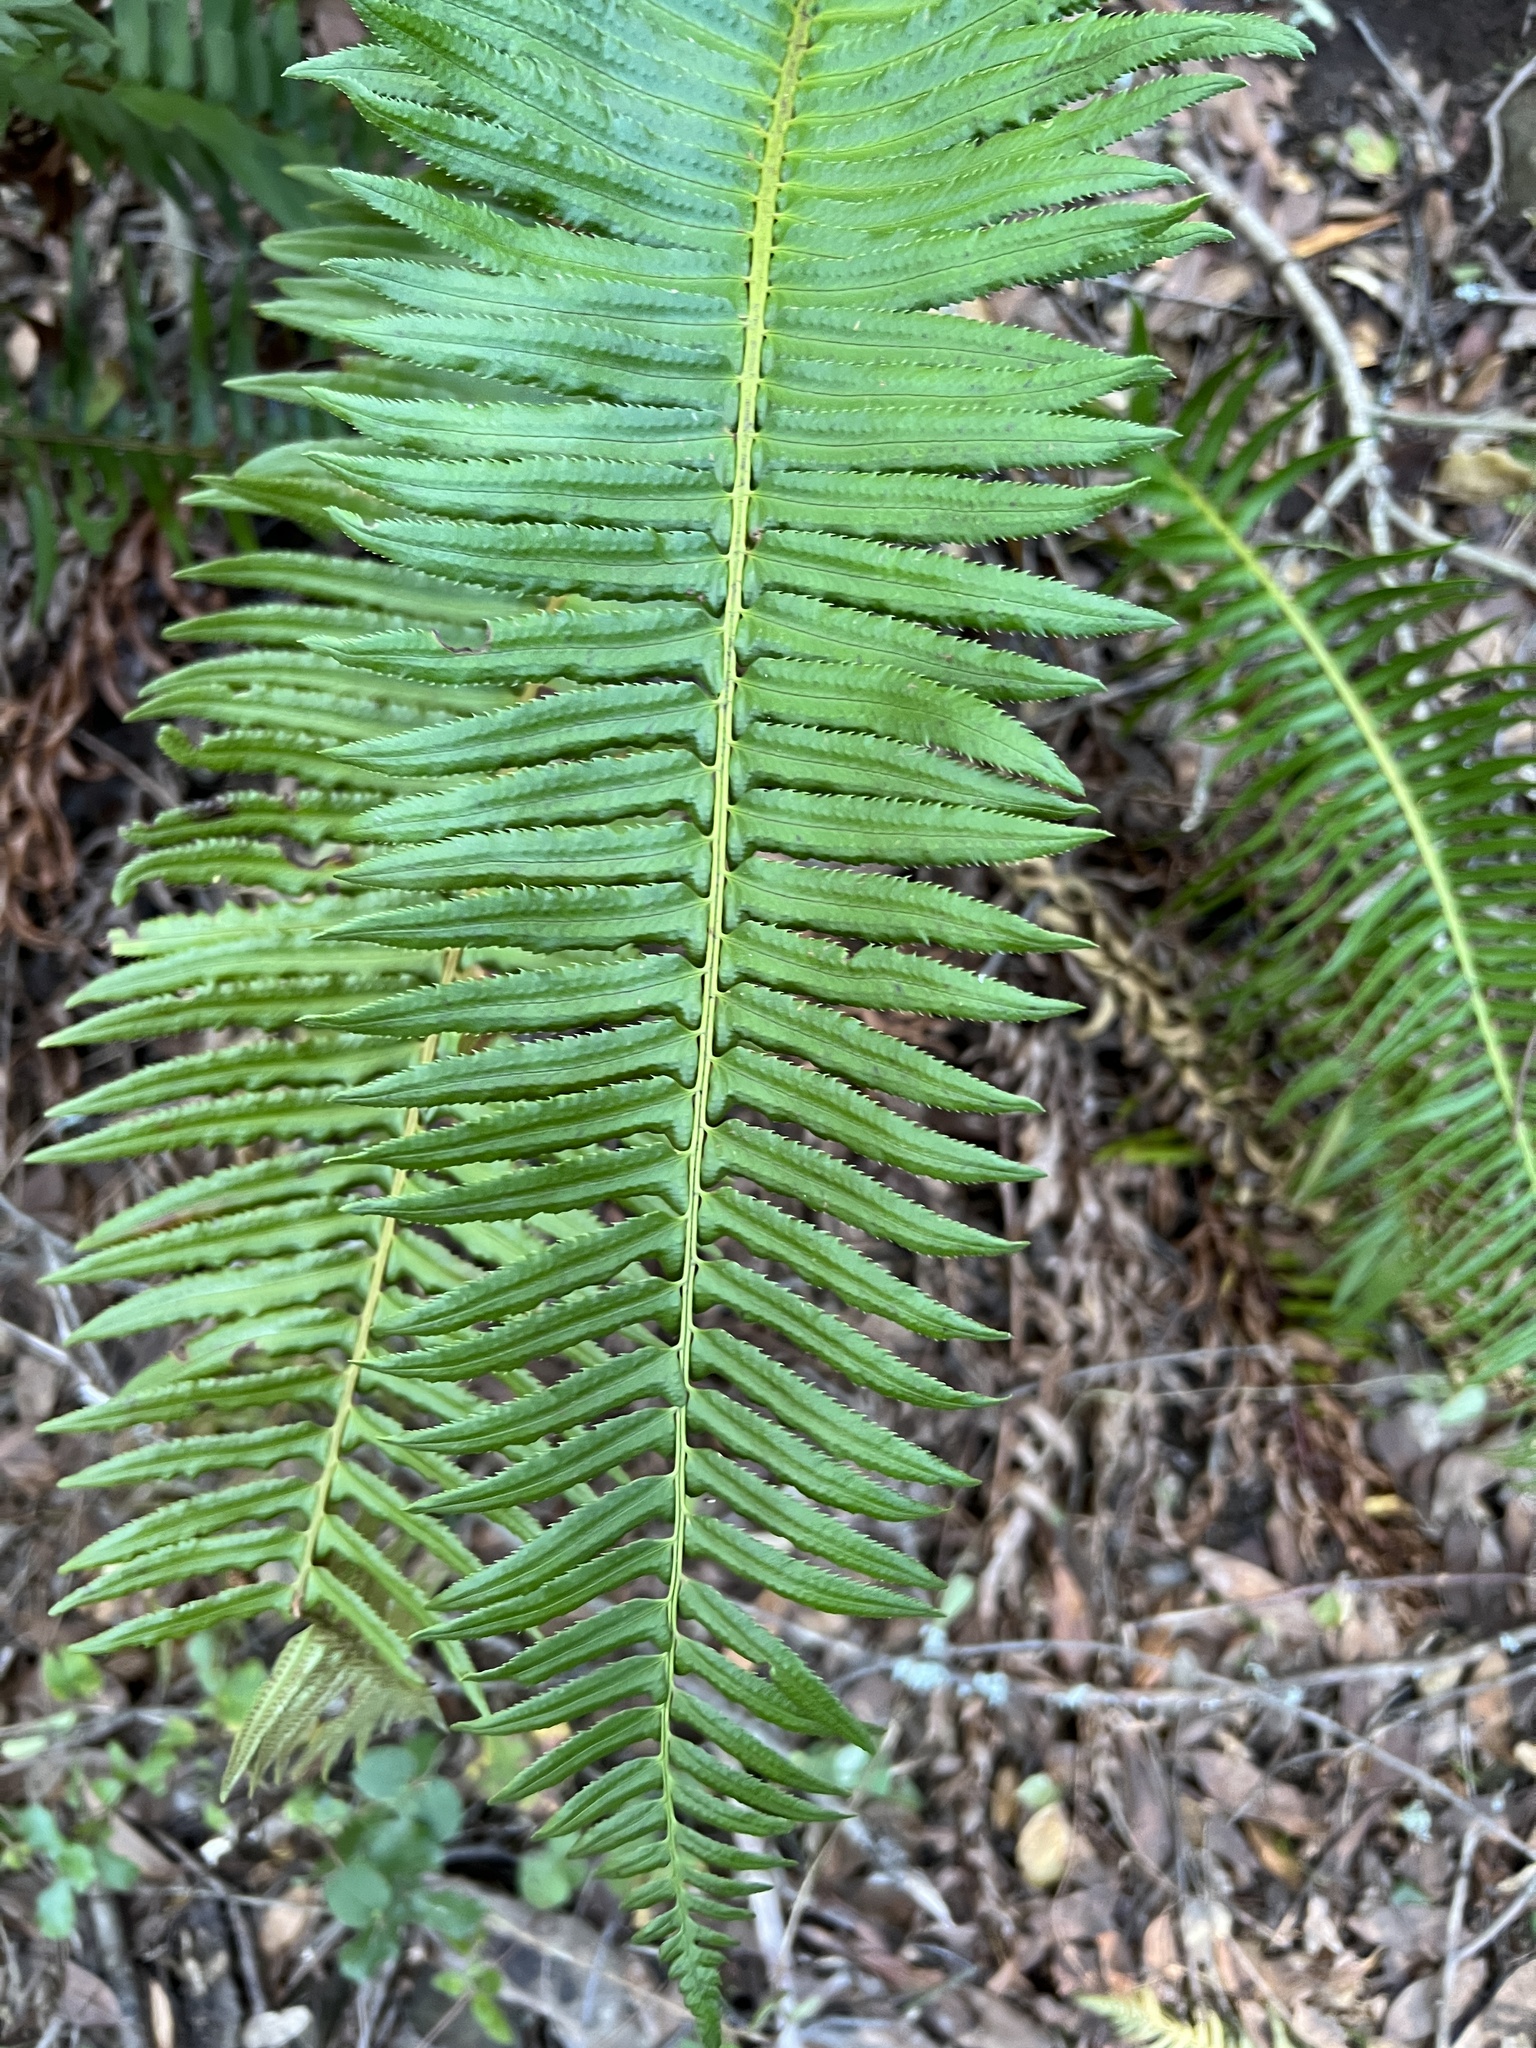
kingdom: Plantae
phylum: Tracheophyta
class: Polypodiopsida
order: Polypodiales
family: Dryopteridaceae
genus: Polystichum
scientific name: Polystichum munitum
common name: Western sword-fern
